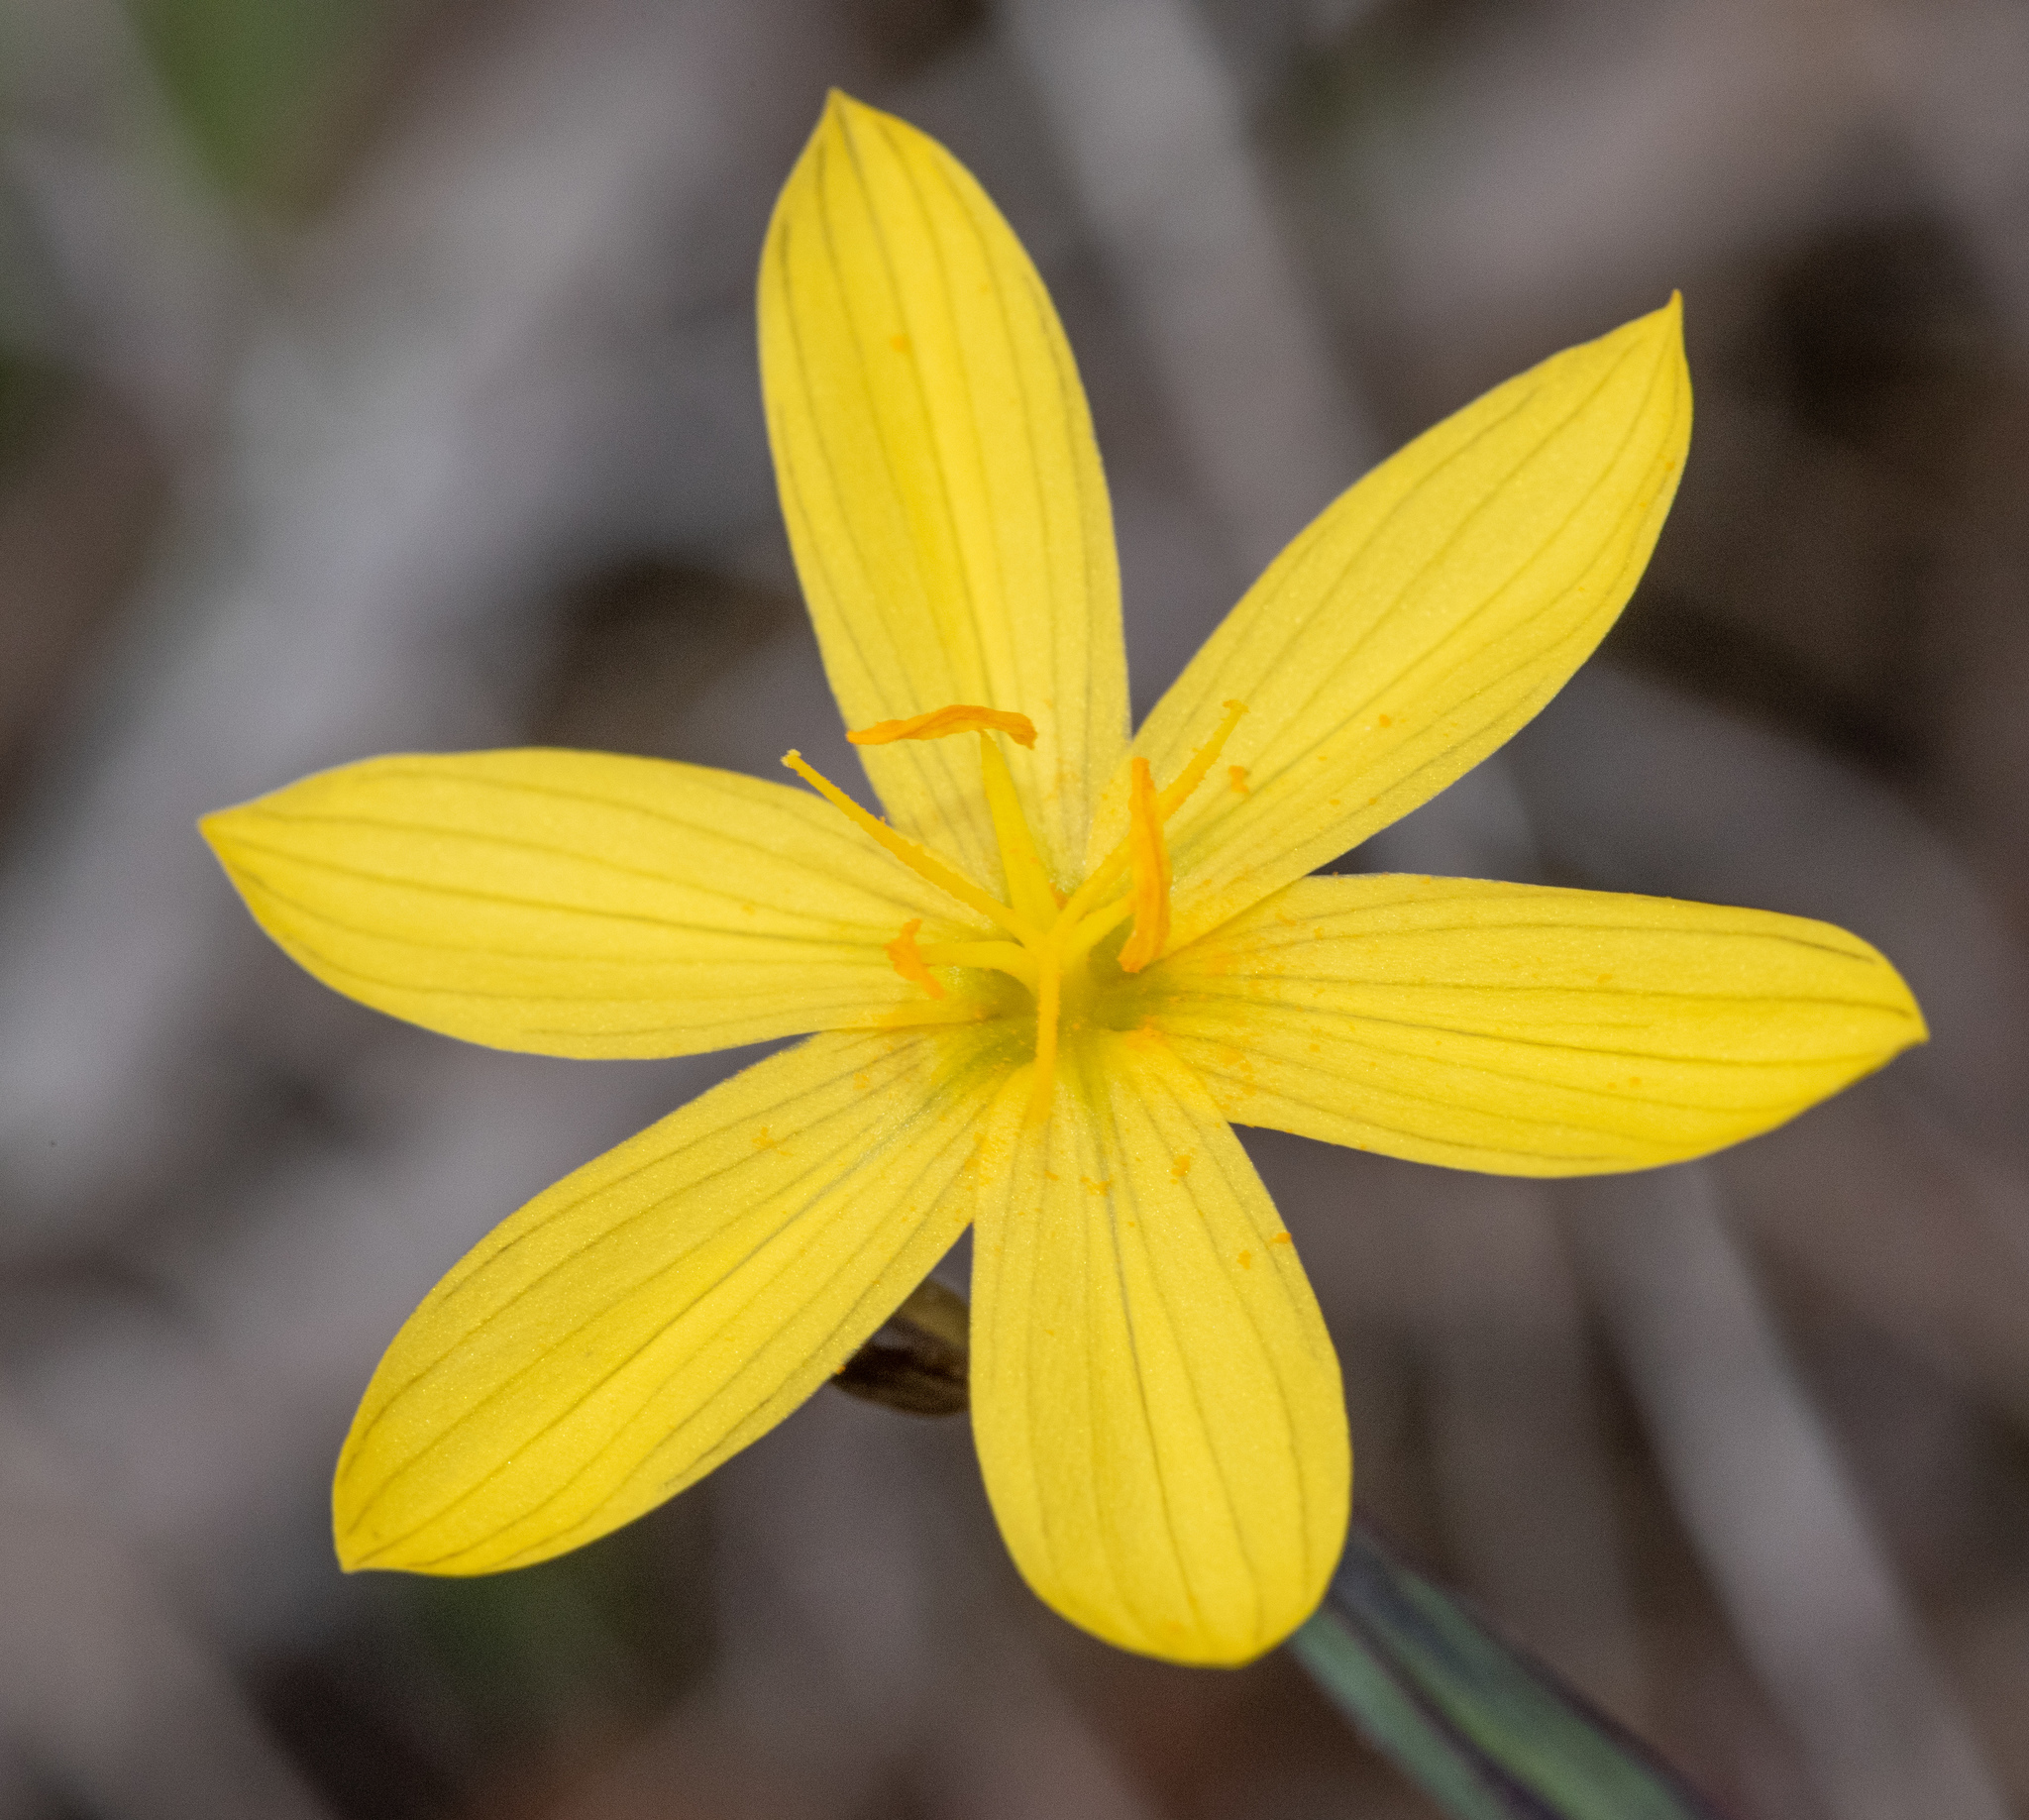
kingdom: Plantae
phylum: Tracheophyta
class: Liliopsida
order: Asparagales
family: Iridaceae
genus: Sisyrinchium
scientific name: Sisyrinchium californicum
